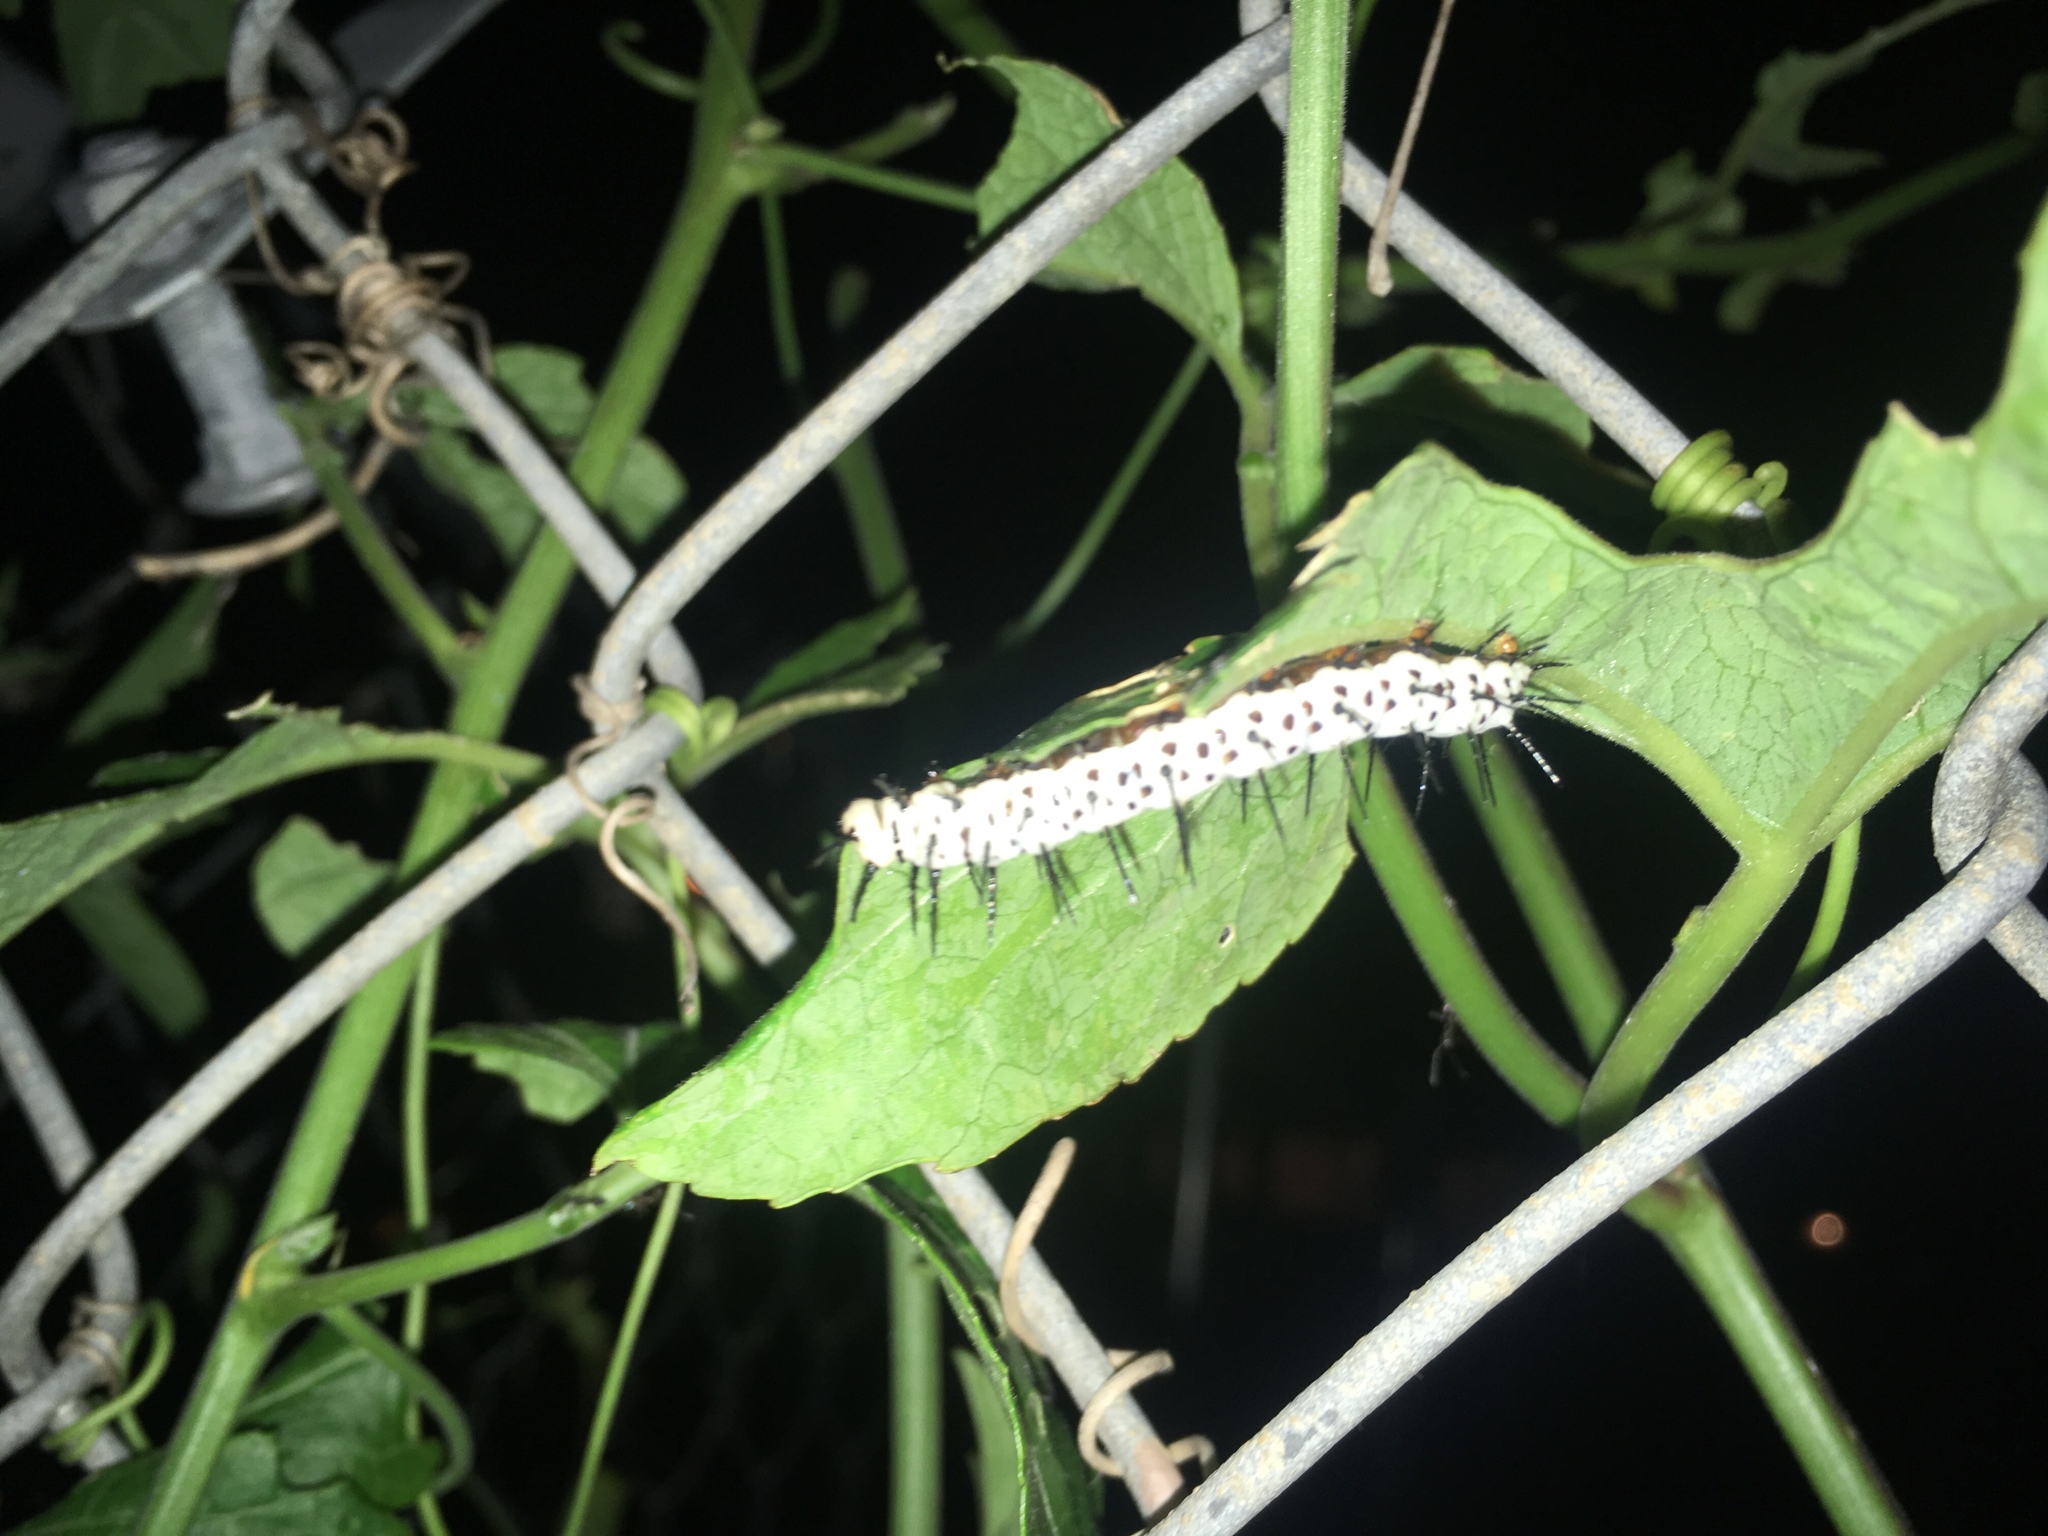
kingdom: Animalia
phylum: Arthropoda
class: Insecta
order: Lepidoptera
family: Nymphalidae
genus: Heliconius
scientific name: Heliconius charithonia
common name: Zebra long wing
